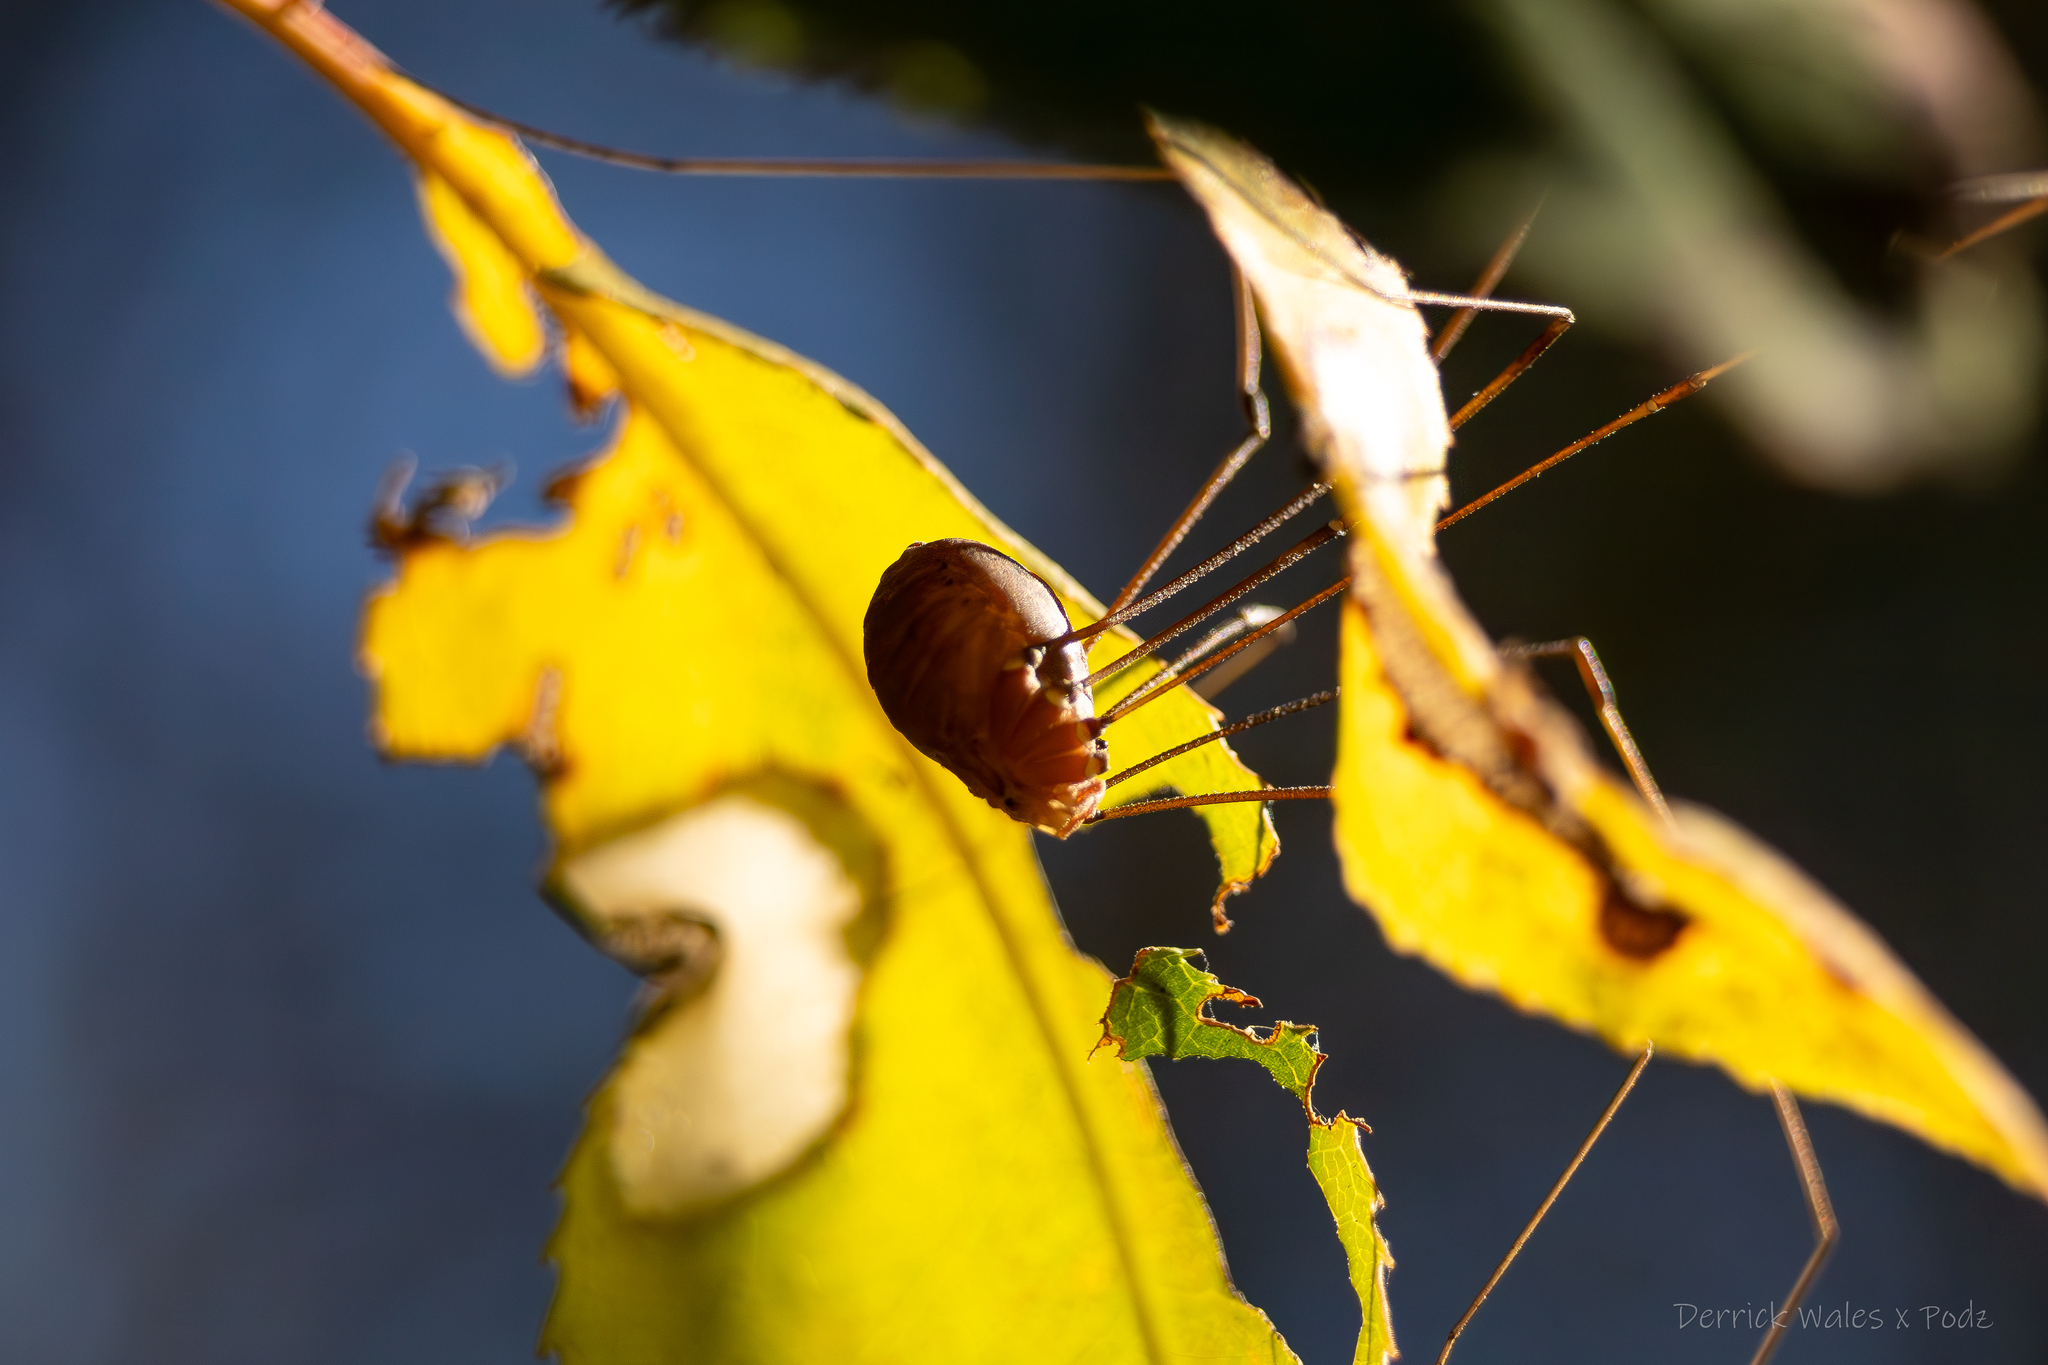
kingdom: Animalia
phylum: Arthropoda
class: Arachnida
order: Opiliones
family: Sclerosomatidae
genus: Leiobunum
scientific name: Leiobunum vittatum
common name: Eastern harvestman
